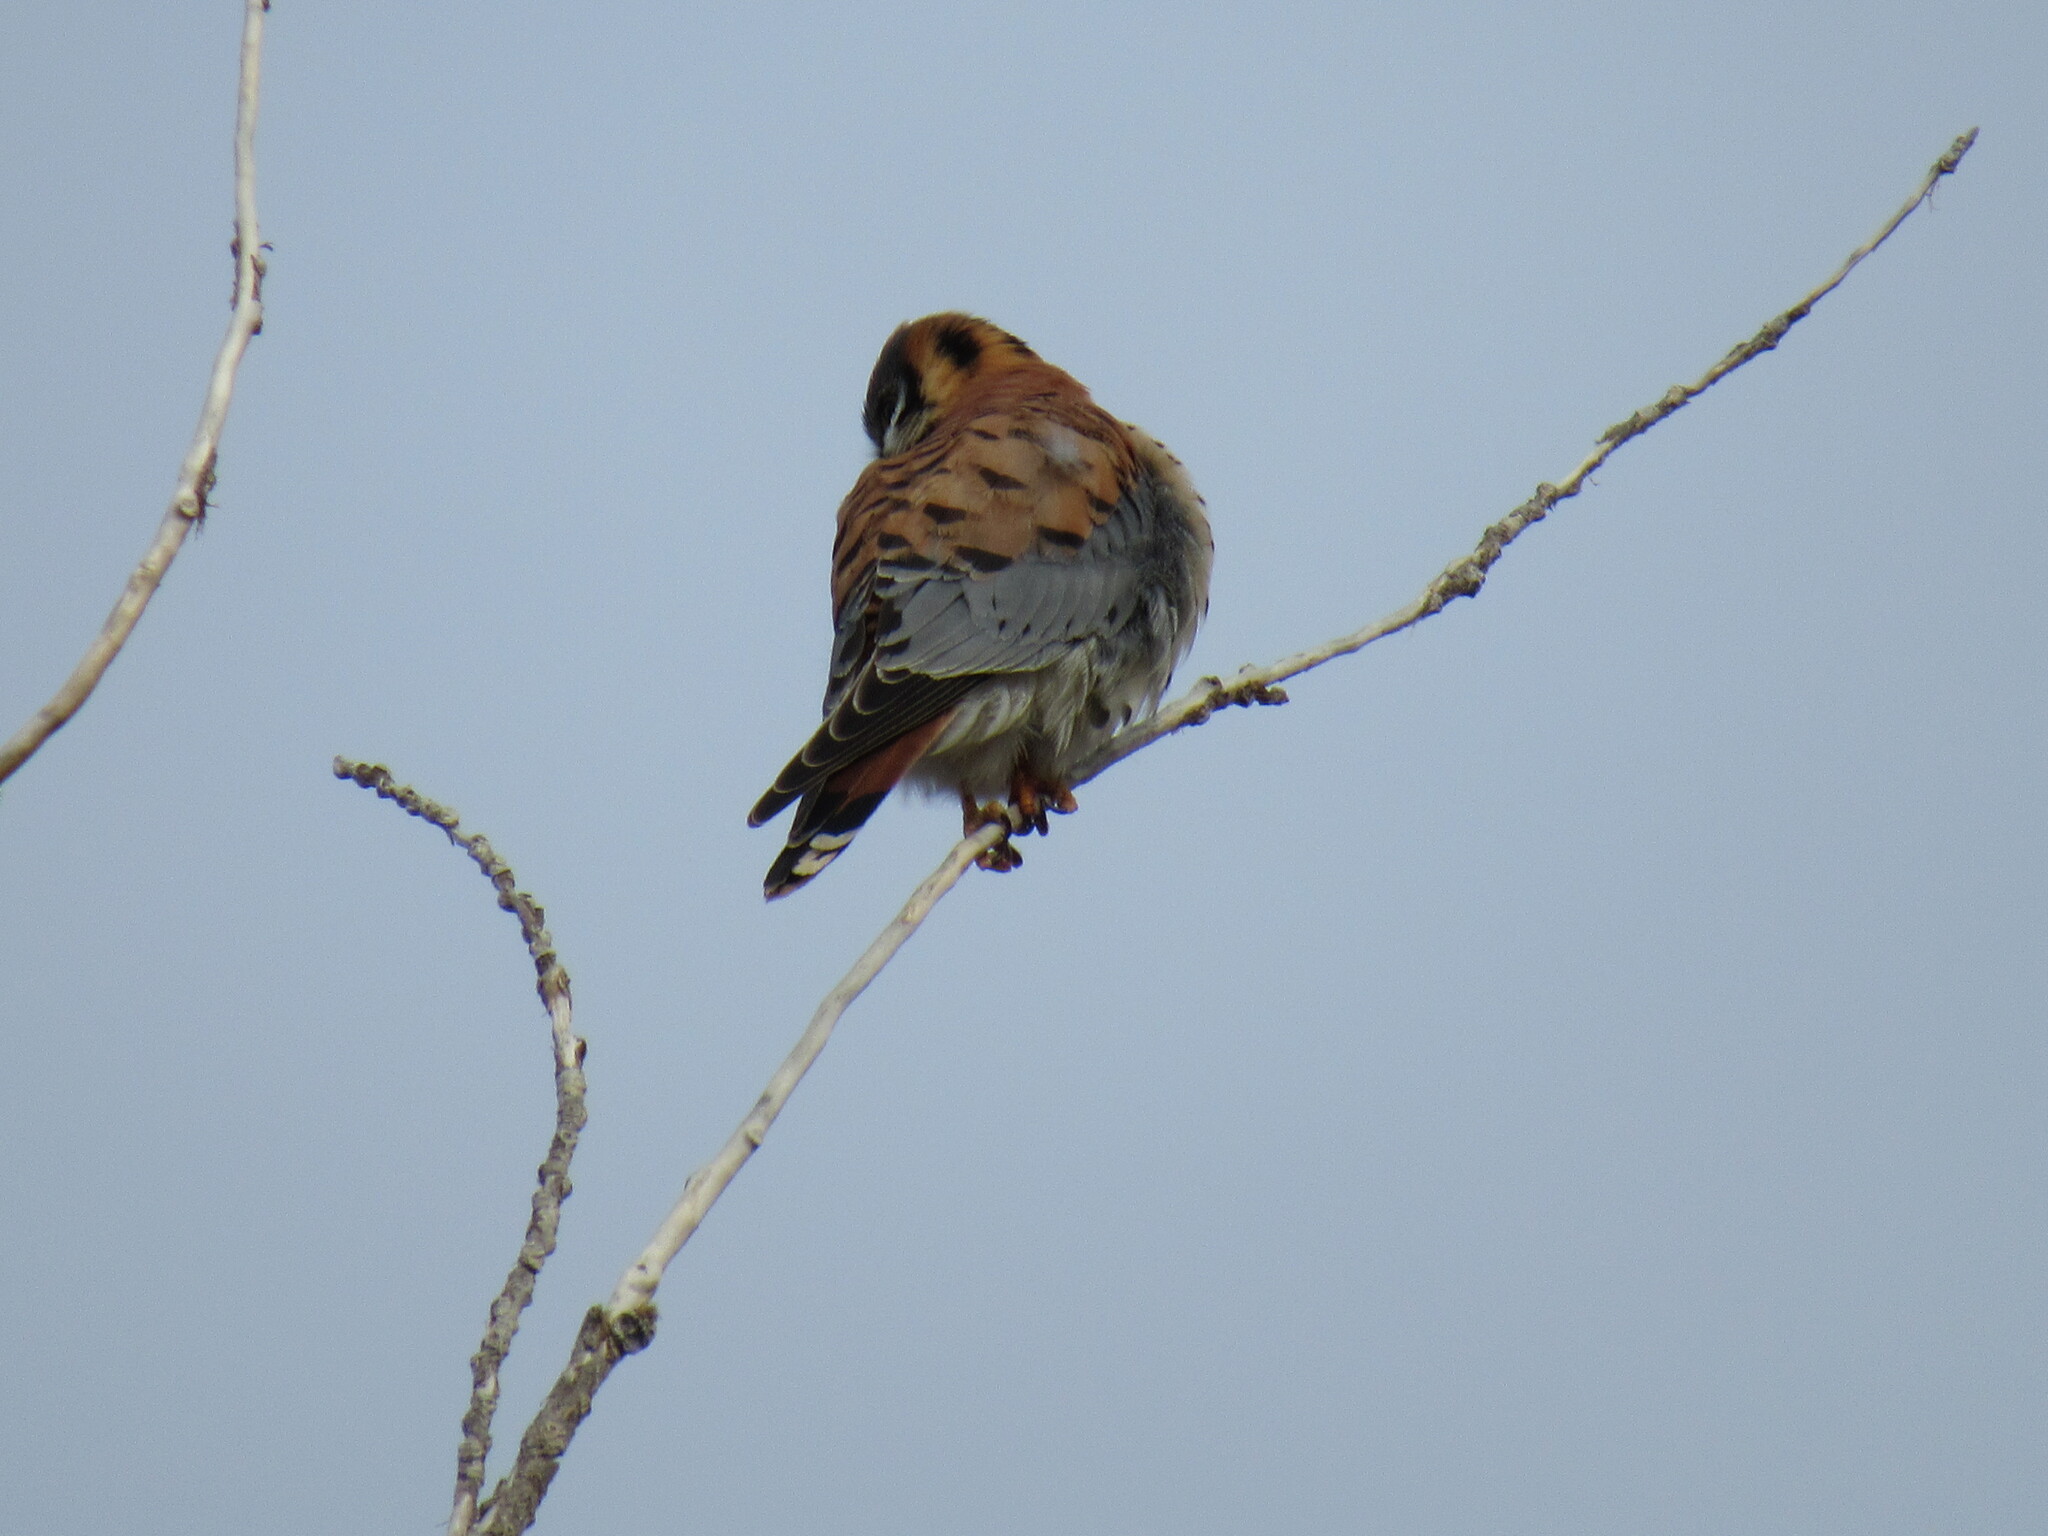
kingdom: Animalia
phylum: Chordata
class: Aves
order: Falconiformes
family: Falconidae
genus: Falco
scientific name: Falco sparverius
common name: American kestrel
